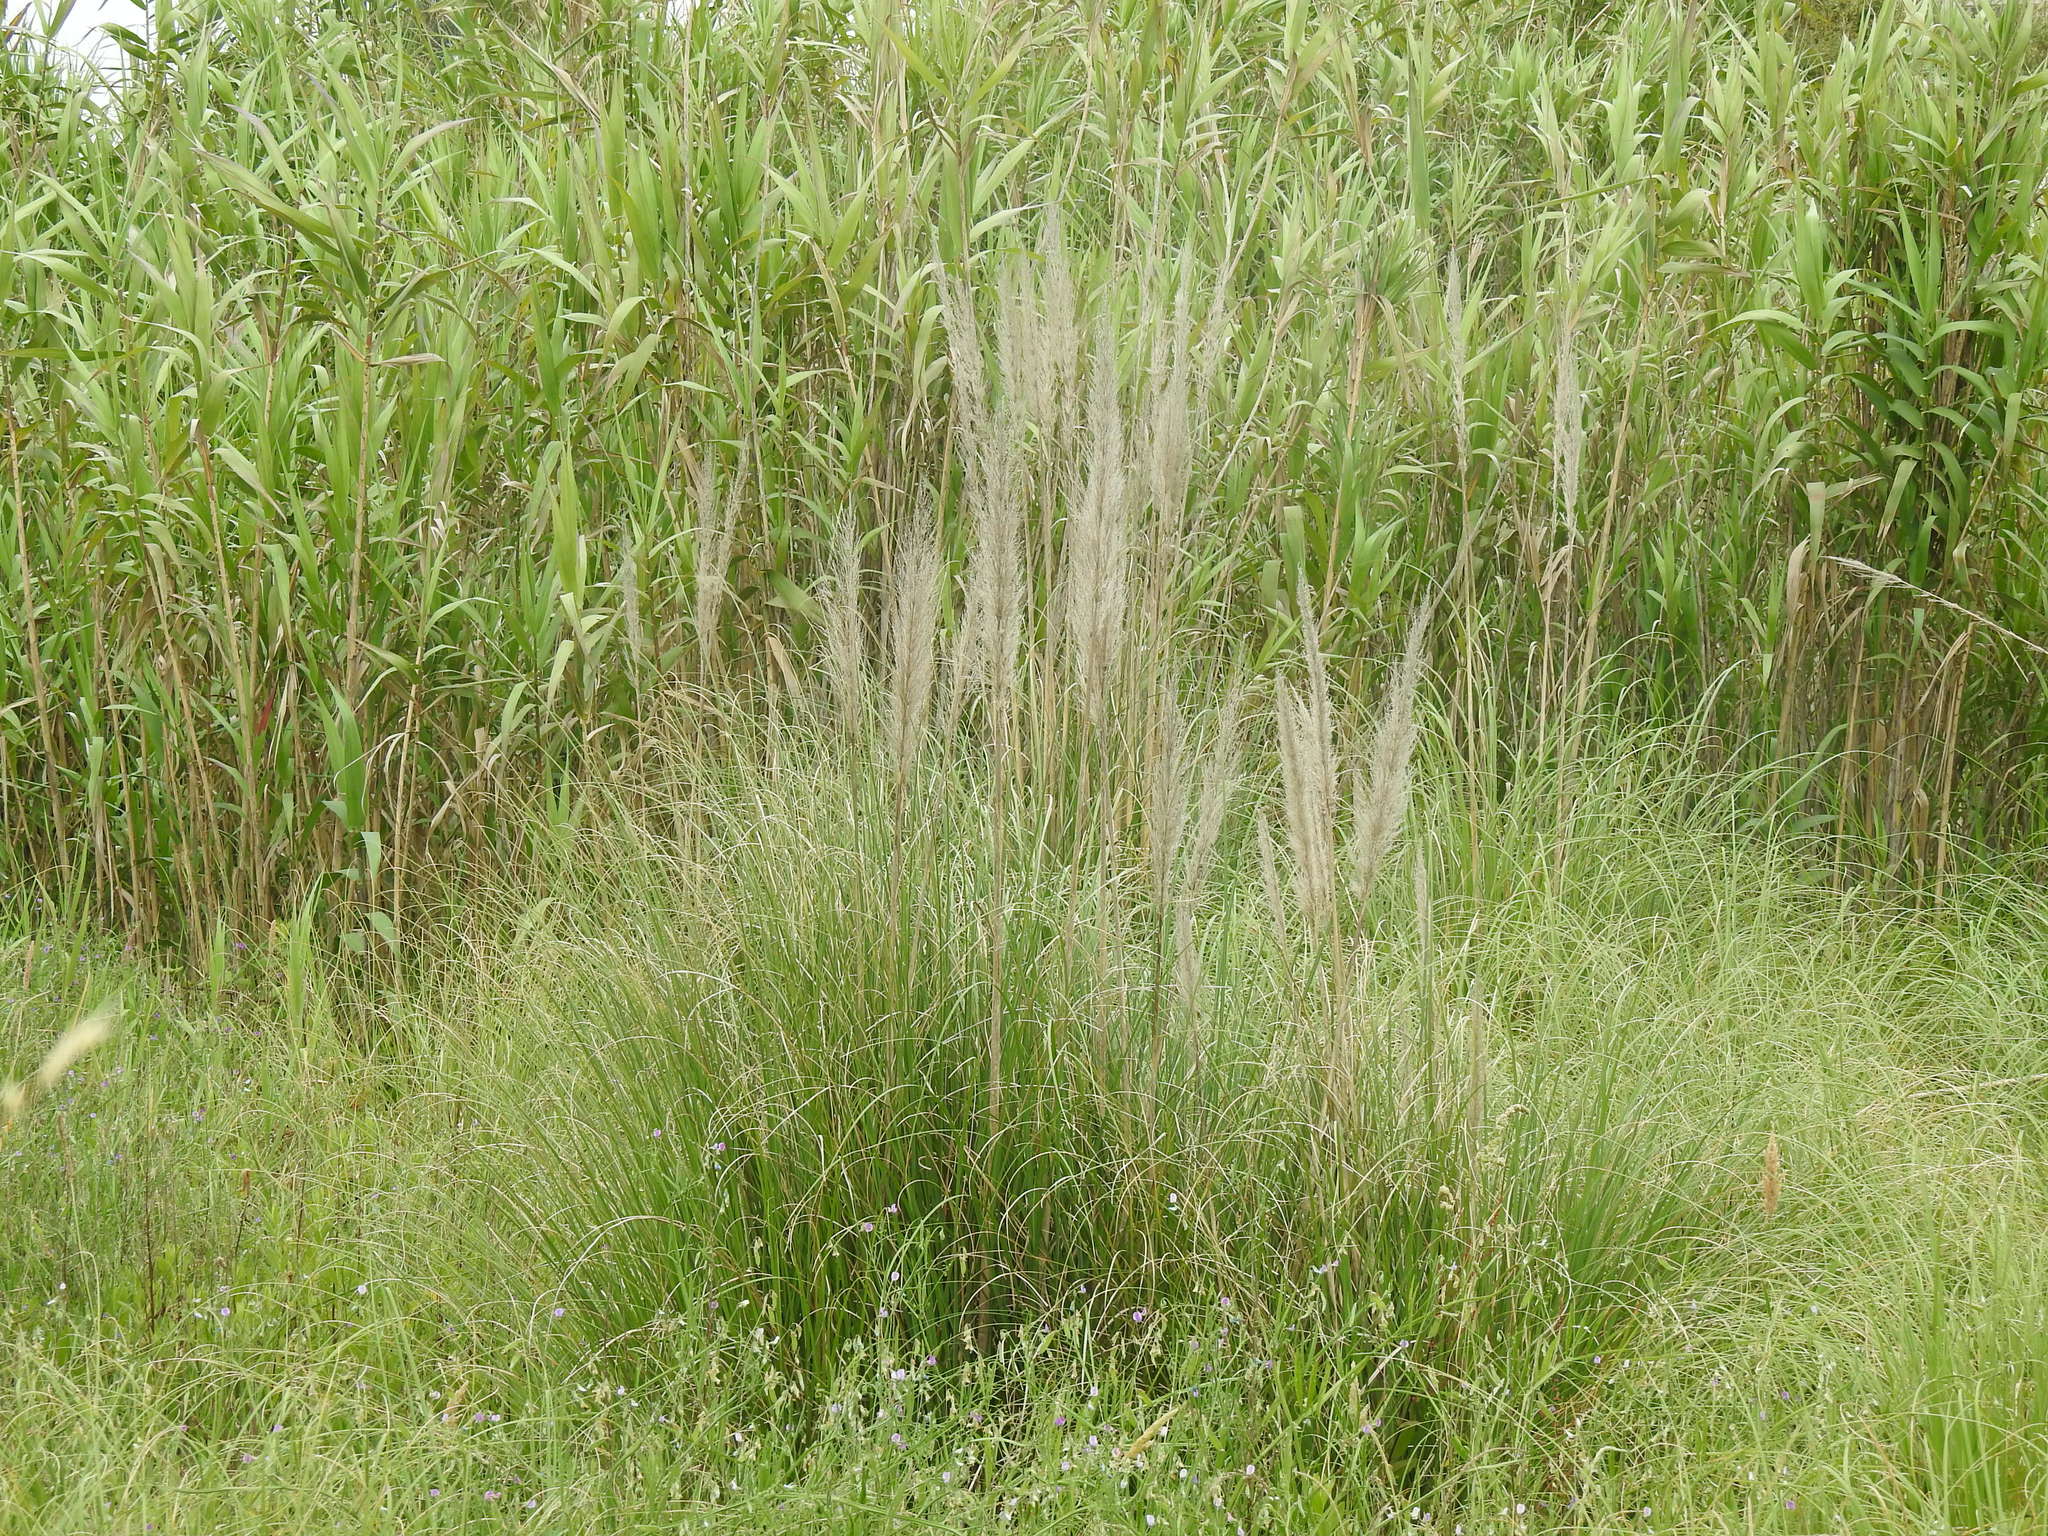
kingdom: Plantae
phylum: Tracheophyta
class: Liliopsida
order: Poales
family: Poaceae
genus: Cortaderia
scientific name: Cortaderia selloana
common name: Uruguayan pampas grass
